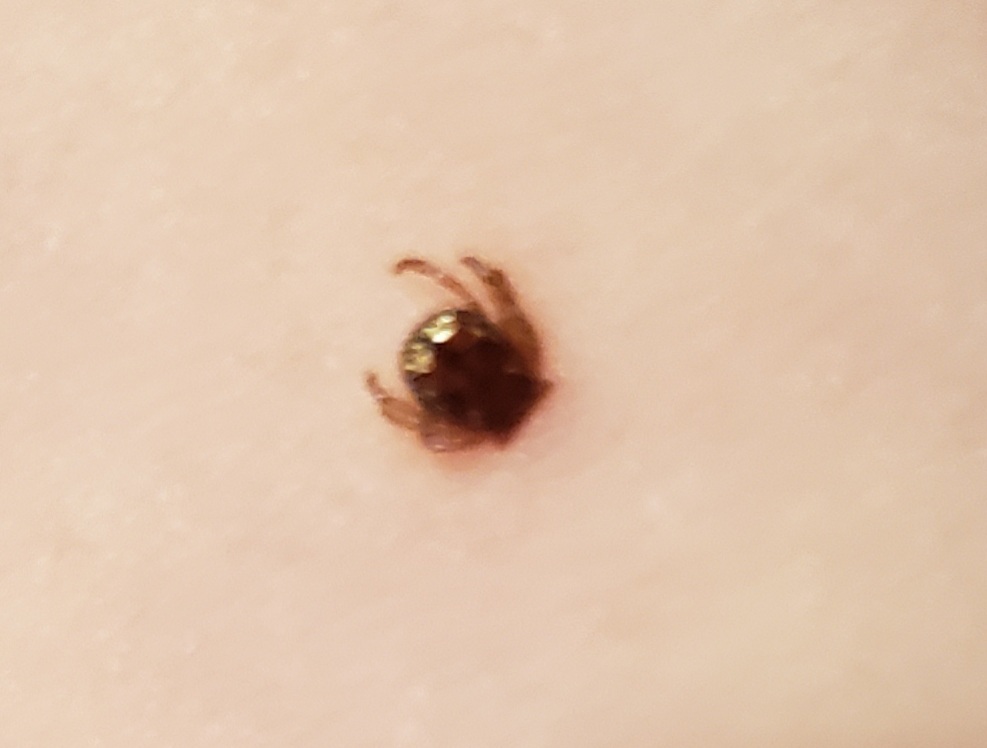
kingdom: Animalia
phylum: Arthropoda
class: Arachnida
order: Ixodida
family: Ixodidae
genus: Amblyomma
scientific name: Amblyomma americanum
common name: Lone star tick
